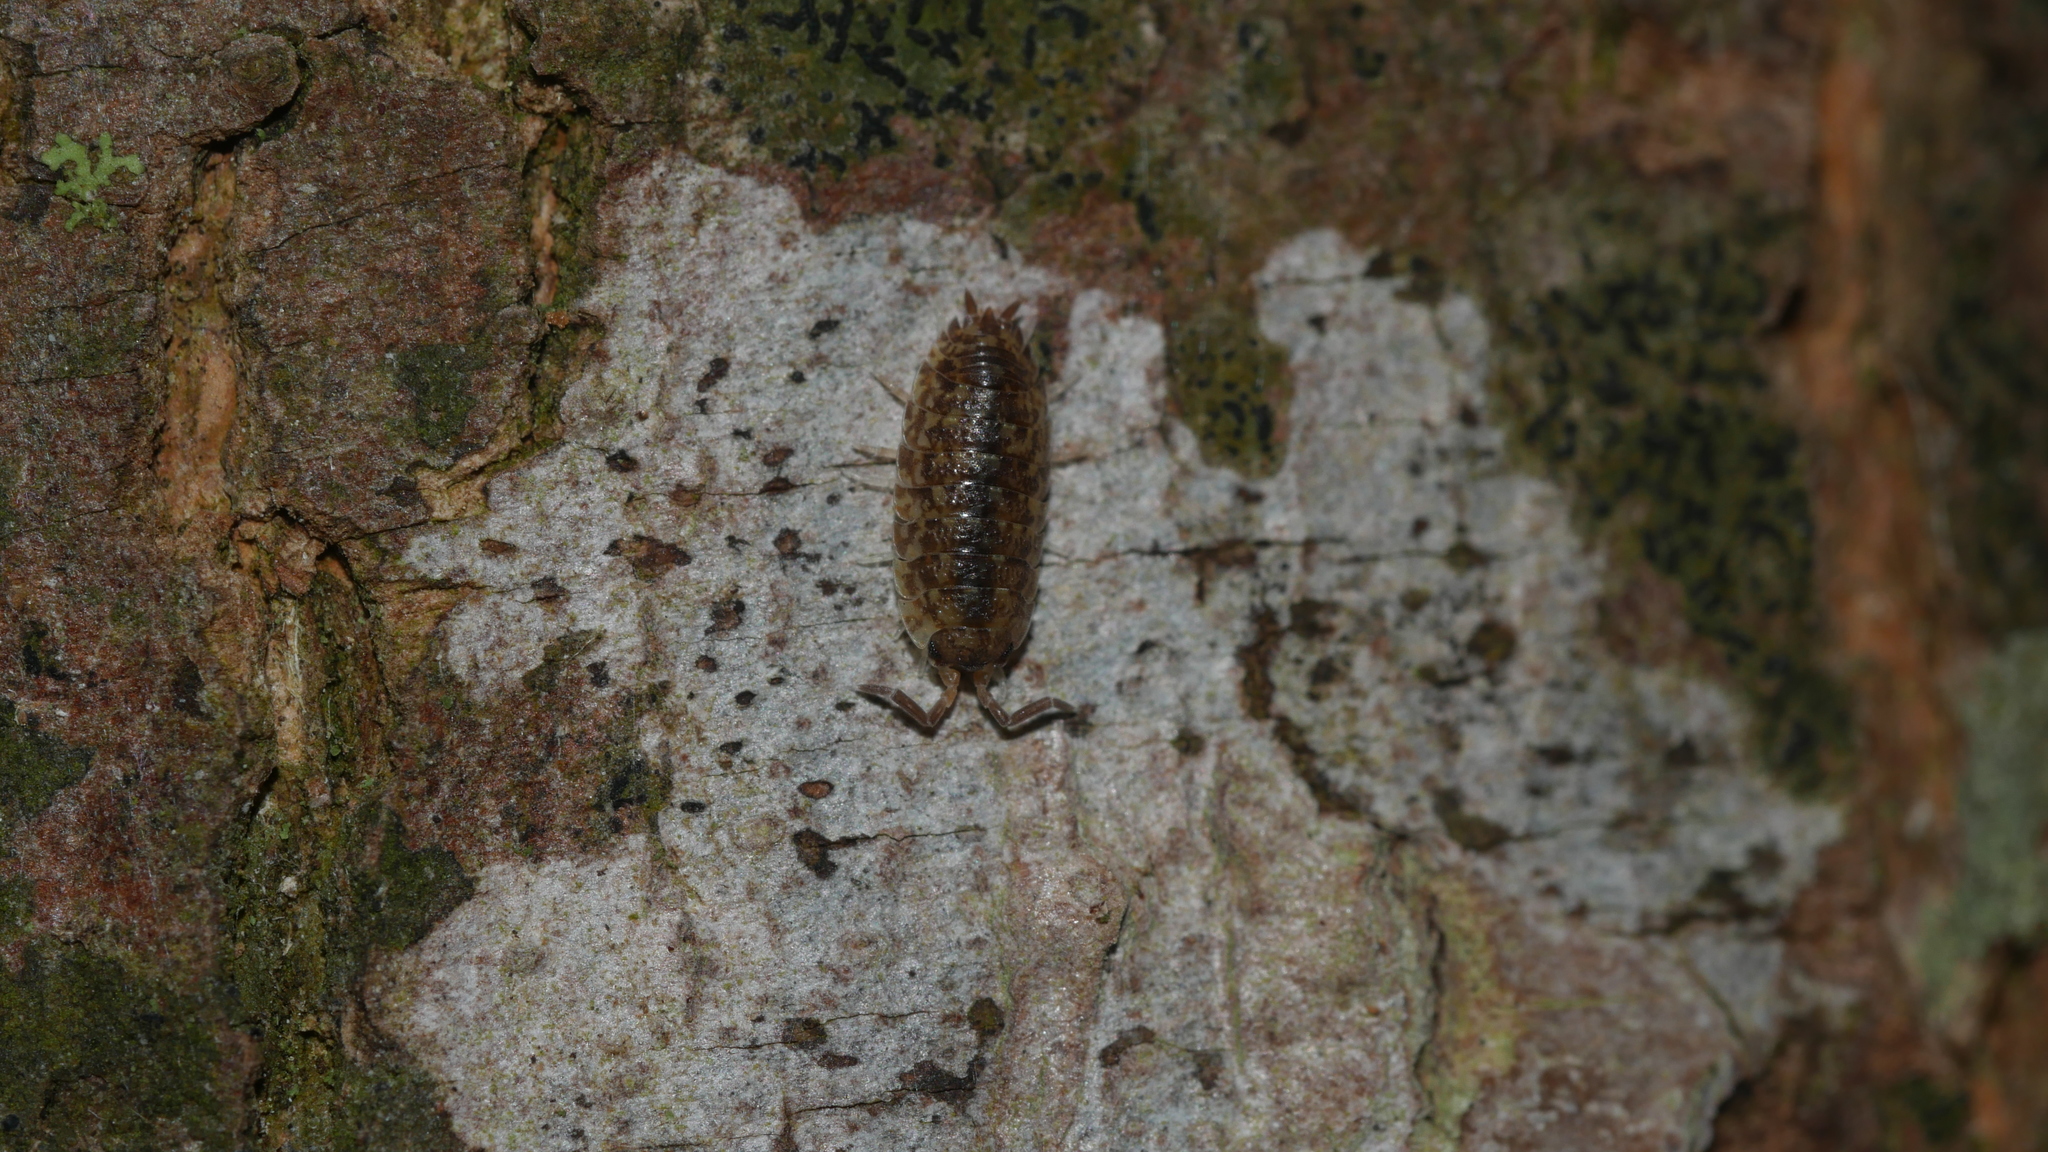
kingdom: Animalia
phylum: Arthropoda
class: Malacostraca
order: Isopoda
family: Porcellionidae
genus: Porcellio
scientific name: Porcellio scaber
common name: Common rough woodlouse
